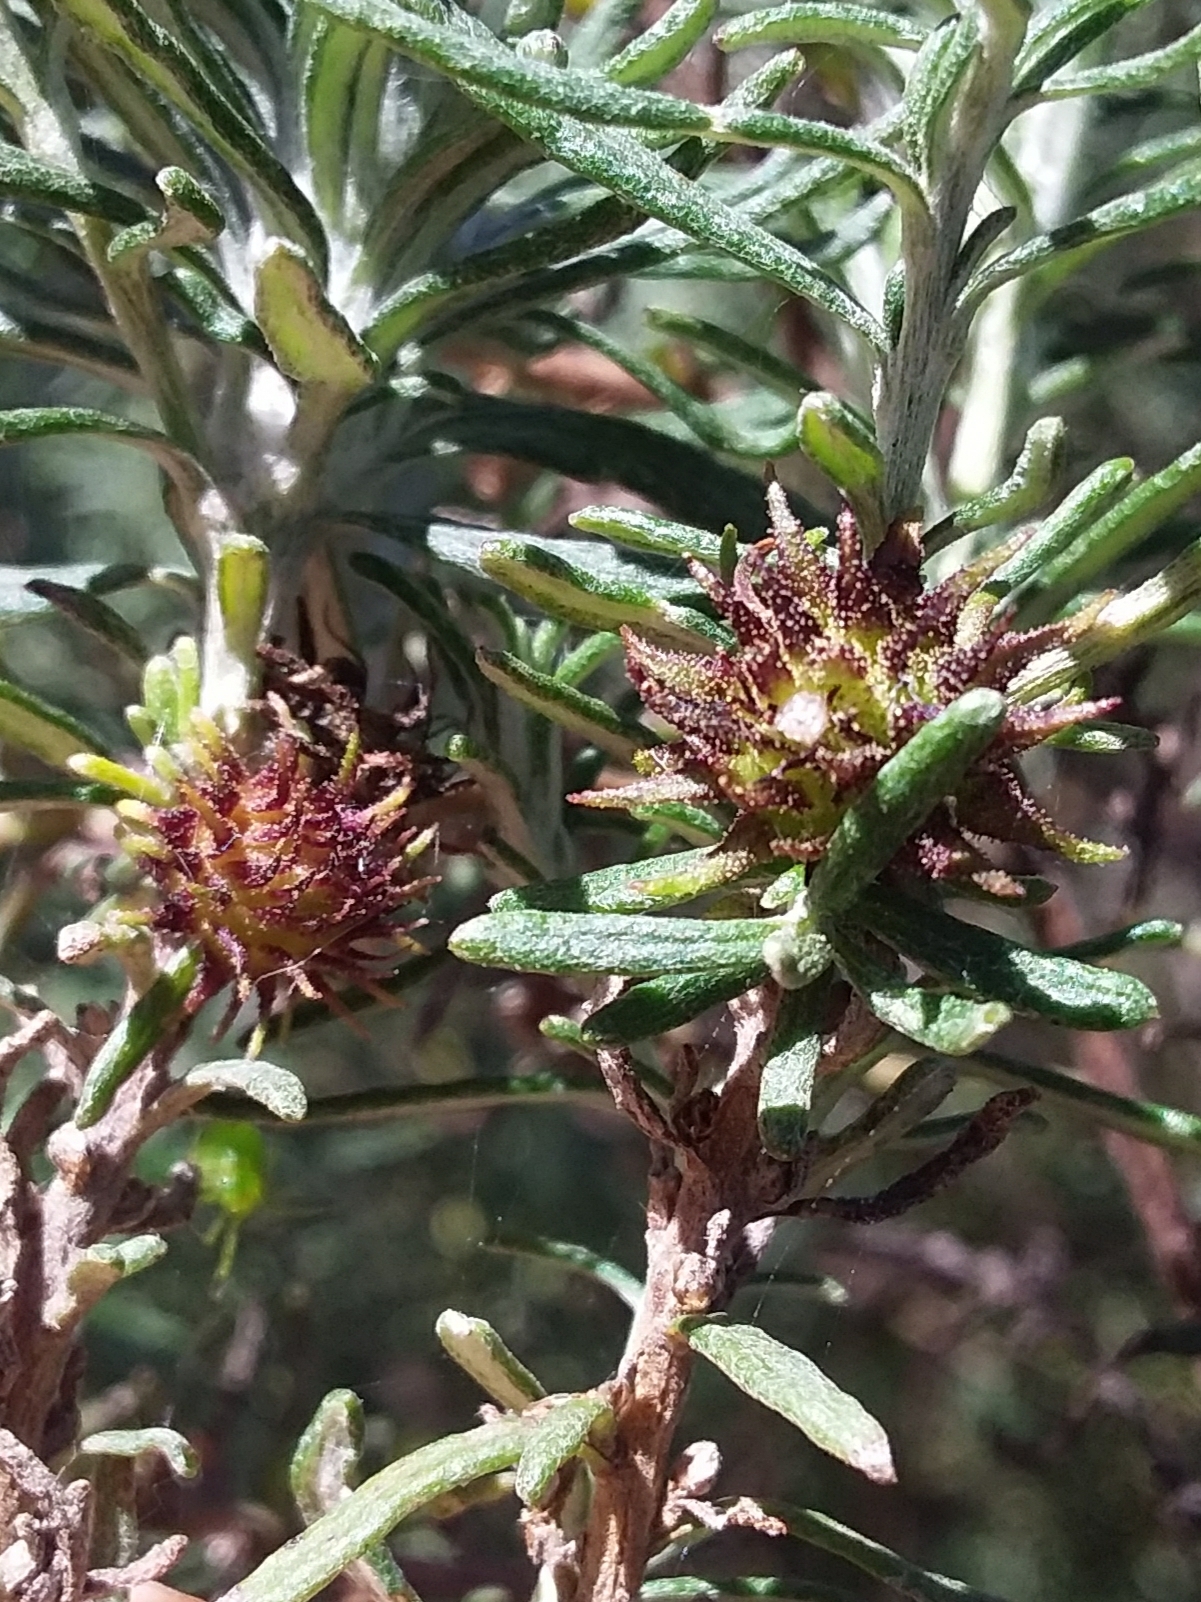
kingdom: Animalia
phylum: Arthropoda
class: Insecta
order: Diptera
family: Cecidomyiidae
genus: Trigonomyia
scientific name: Trigonomyia ananas
